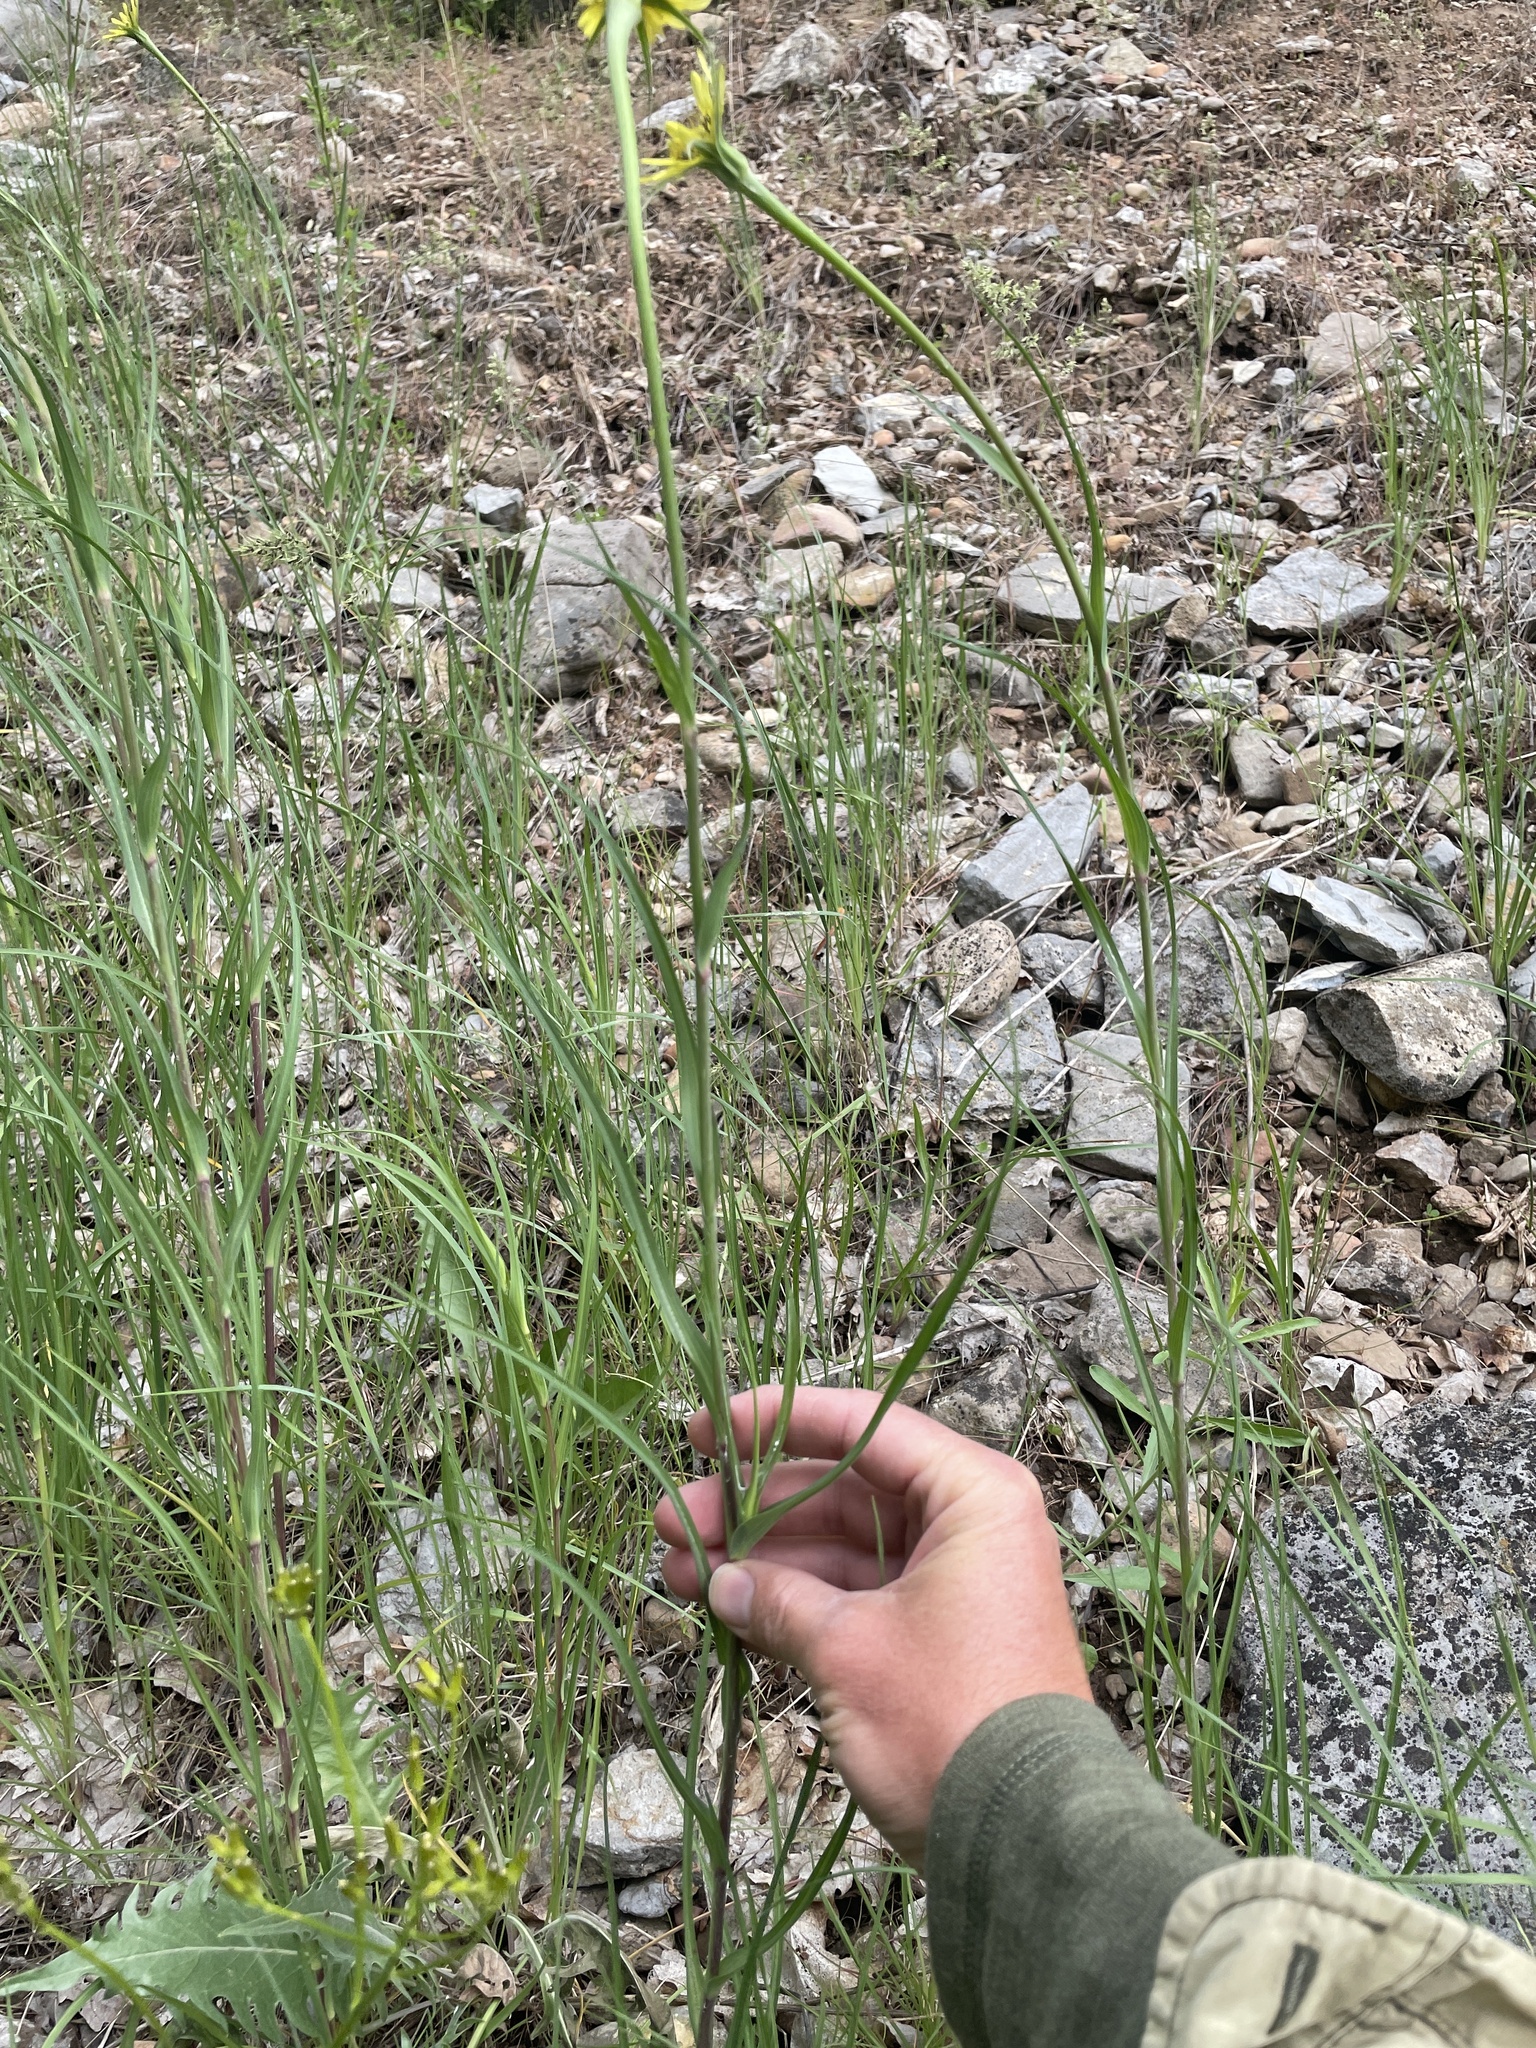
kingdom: Plantae
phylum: Tracheophyta
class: Magnoliopsida
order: Asterales
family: Asteraceae
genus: Tragopogon
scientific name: Tragopogon dubius
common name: Yellow salsify
